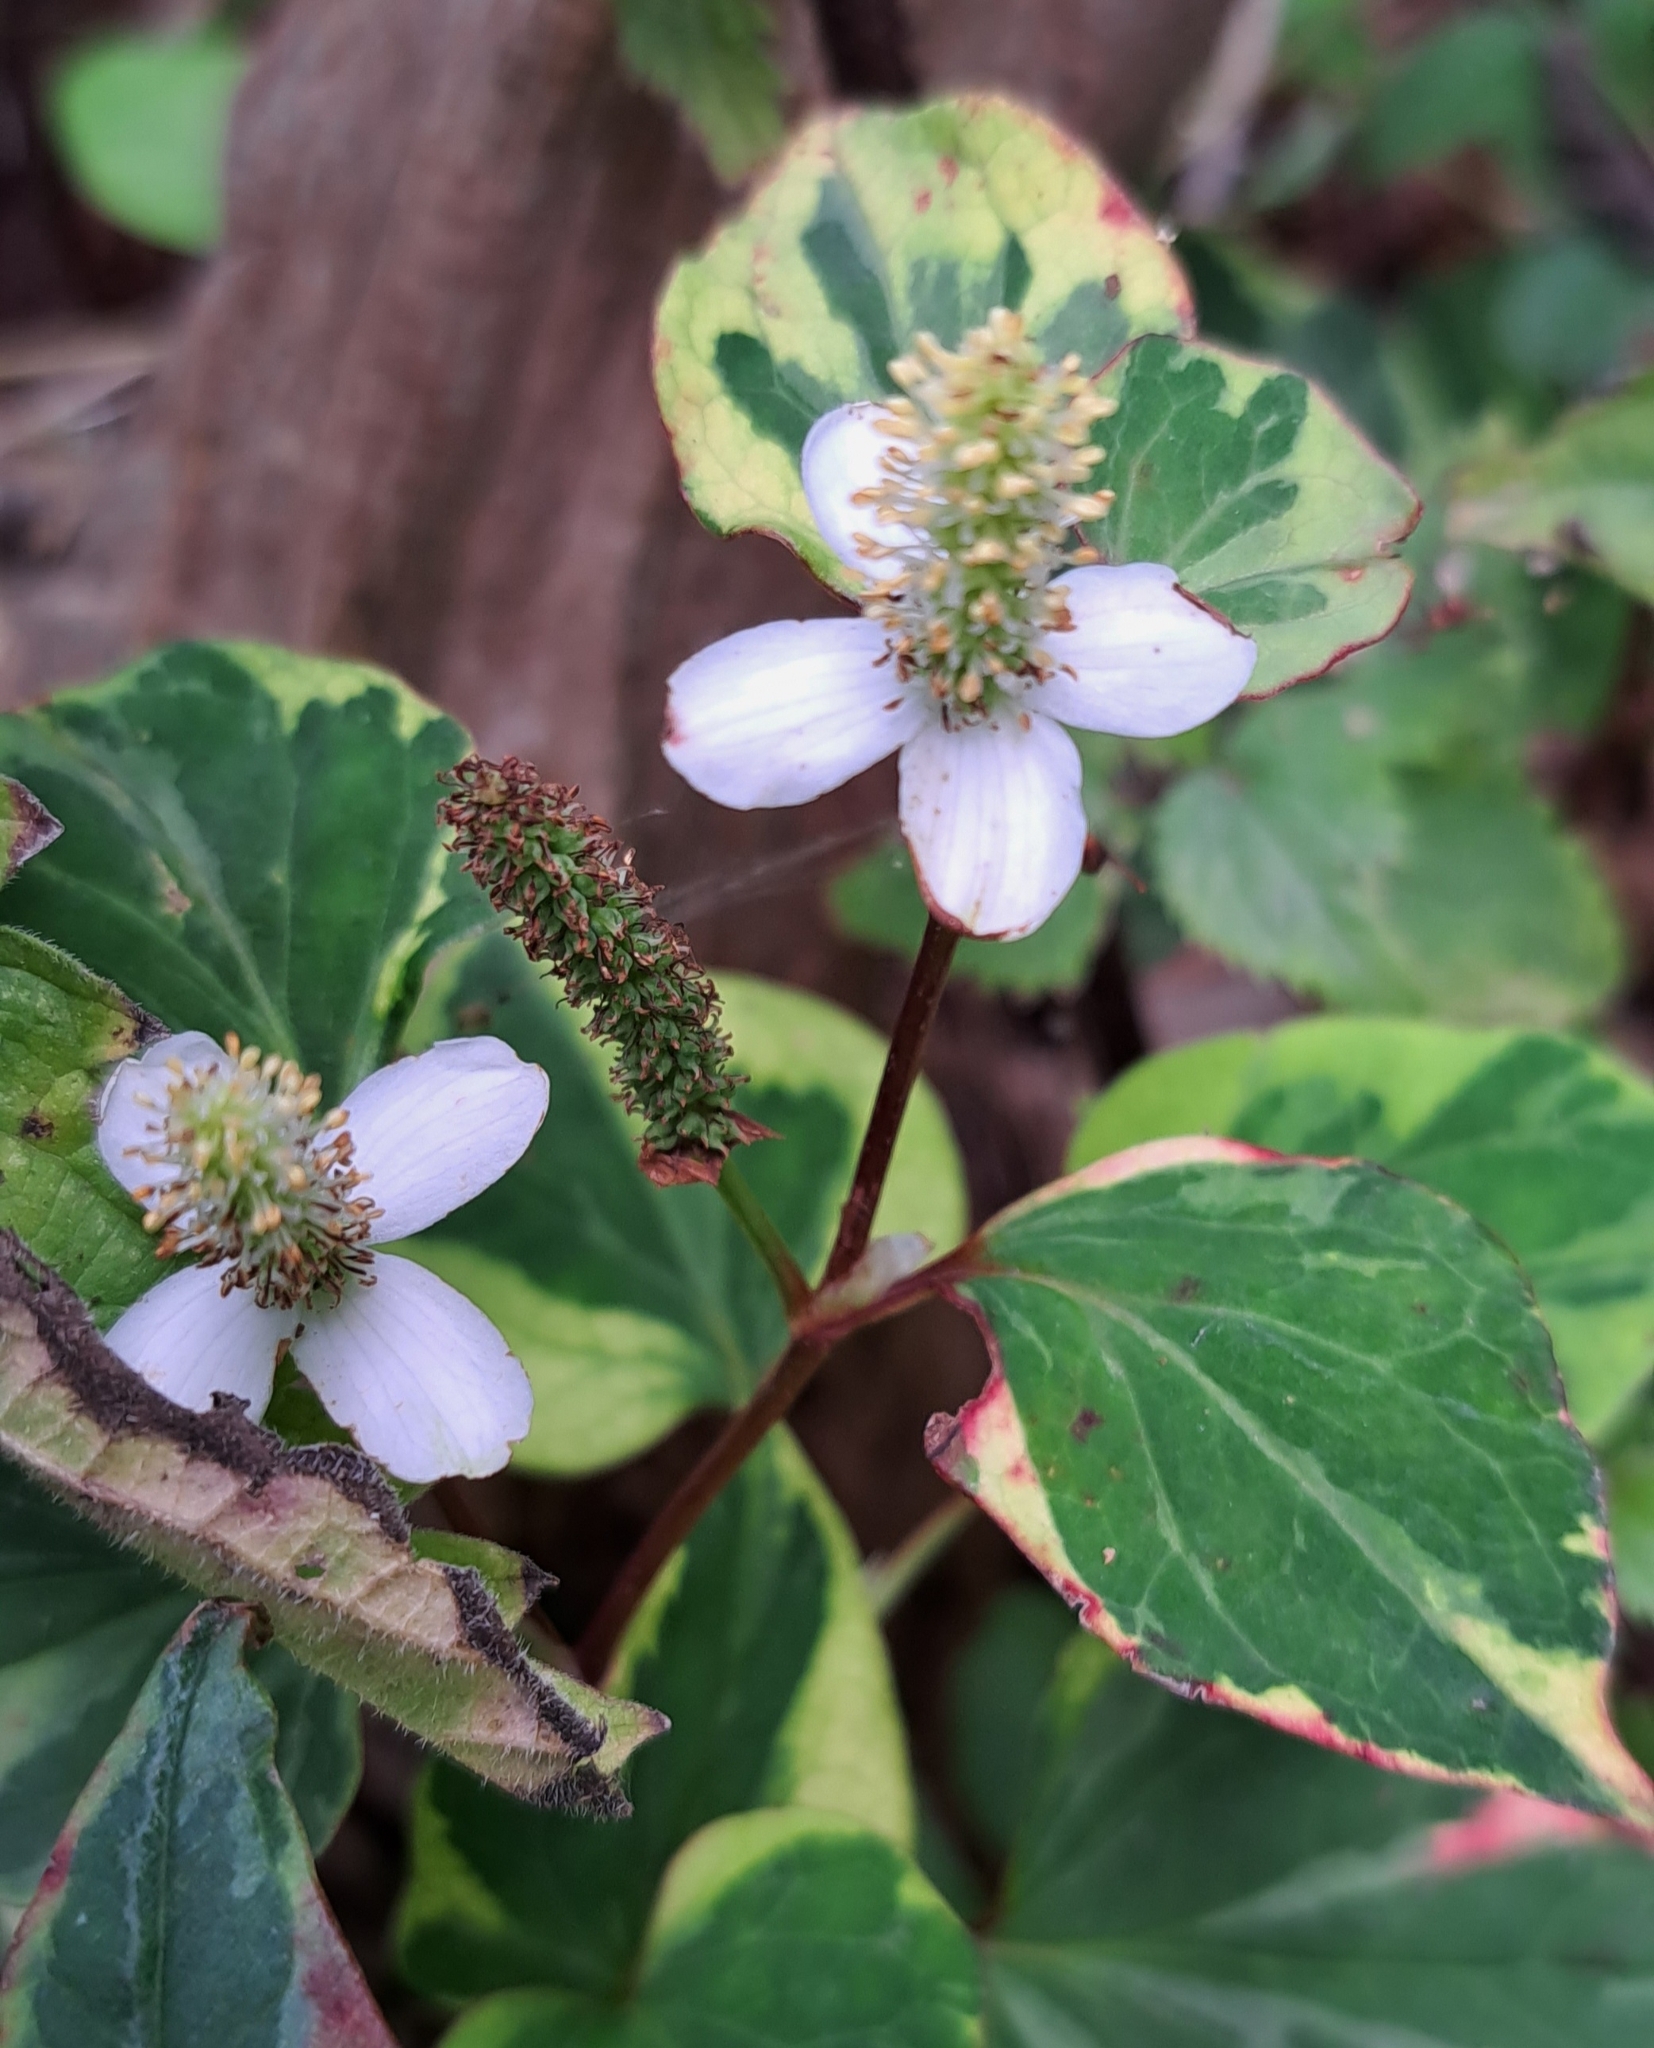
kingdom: Plantae
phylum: Tracheophyta
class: Magnoliopsida
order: Piperales
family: Saururaceae
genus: Houttuynia
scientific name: Houttuynia cordata
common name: Chameleon
